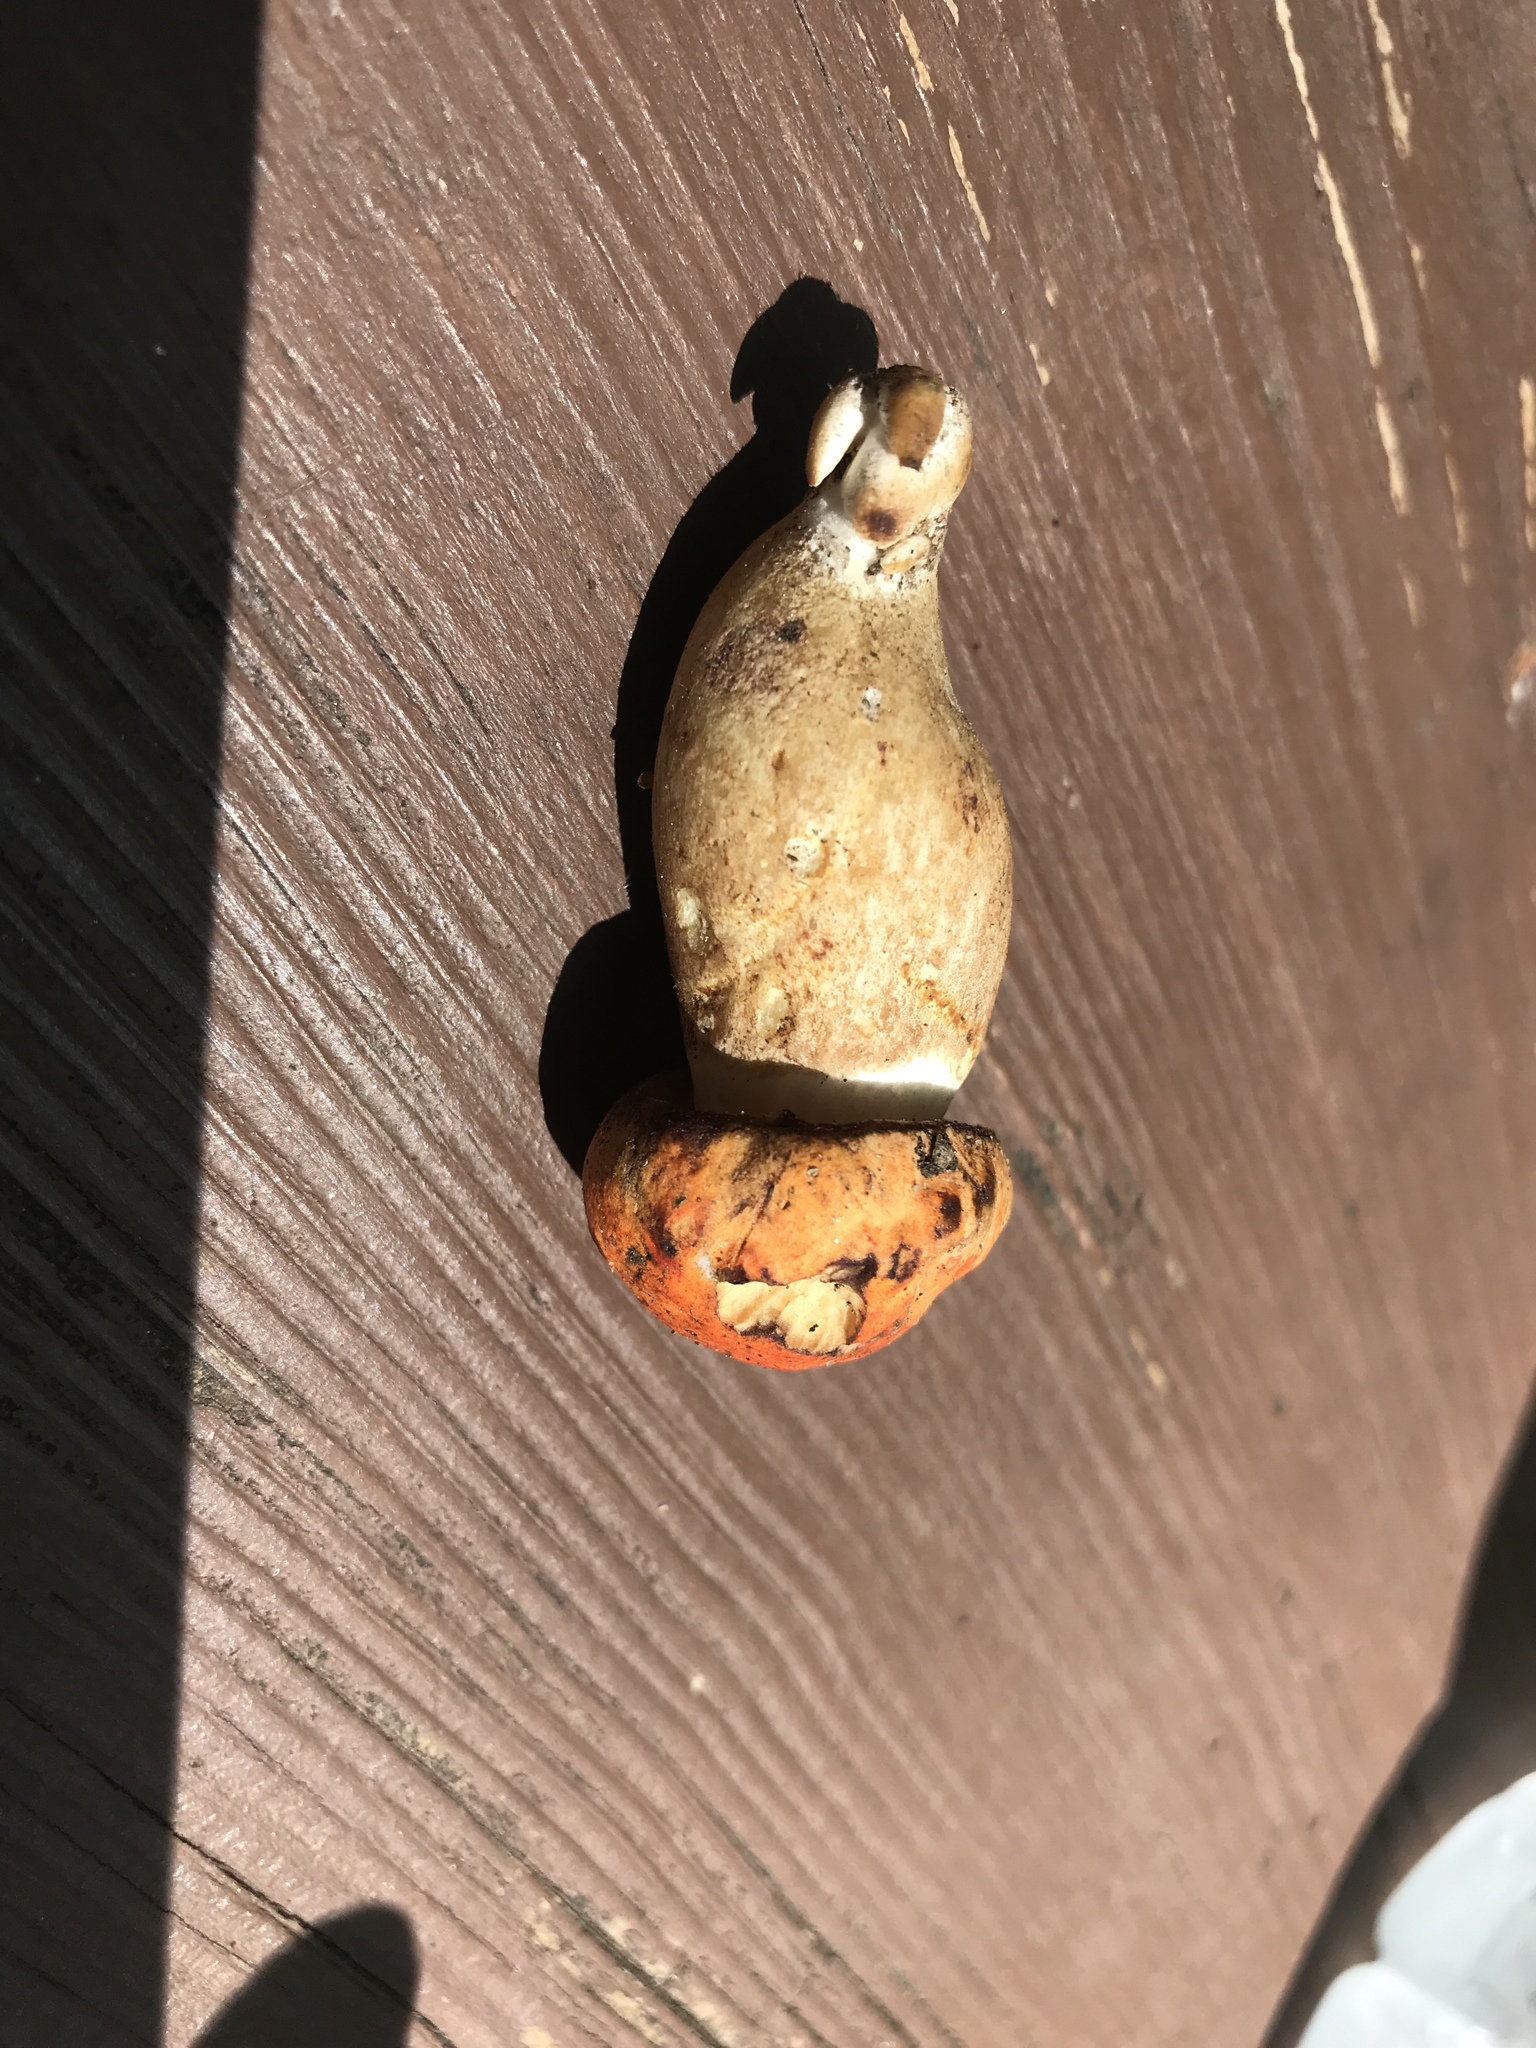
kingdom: Fungi
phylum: Basidiomycota
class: Agaricomycetes
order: Boletales
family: Boletaceae
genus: Tylopilus
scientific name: Tylopilus balloui
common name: Burnt-orange bolete
